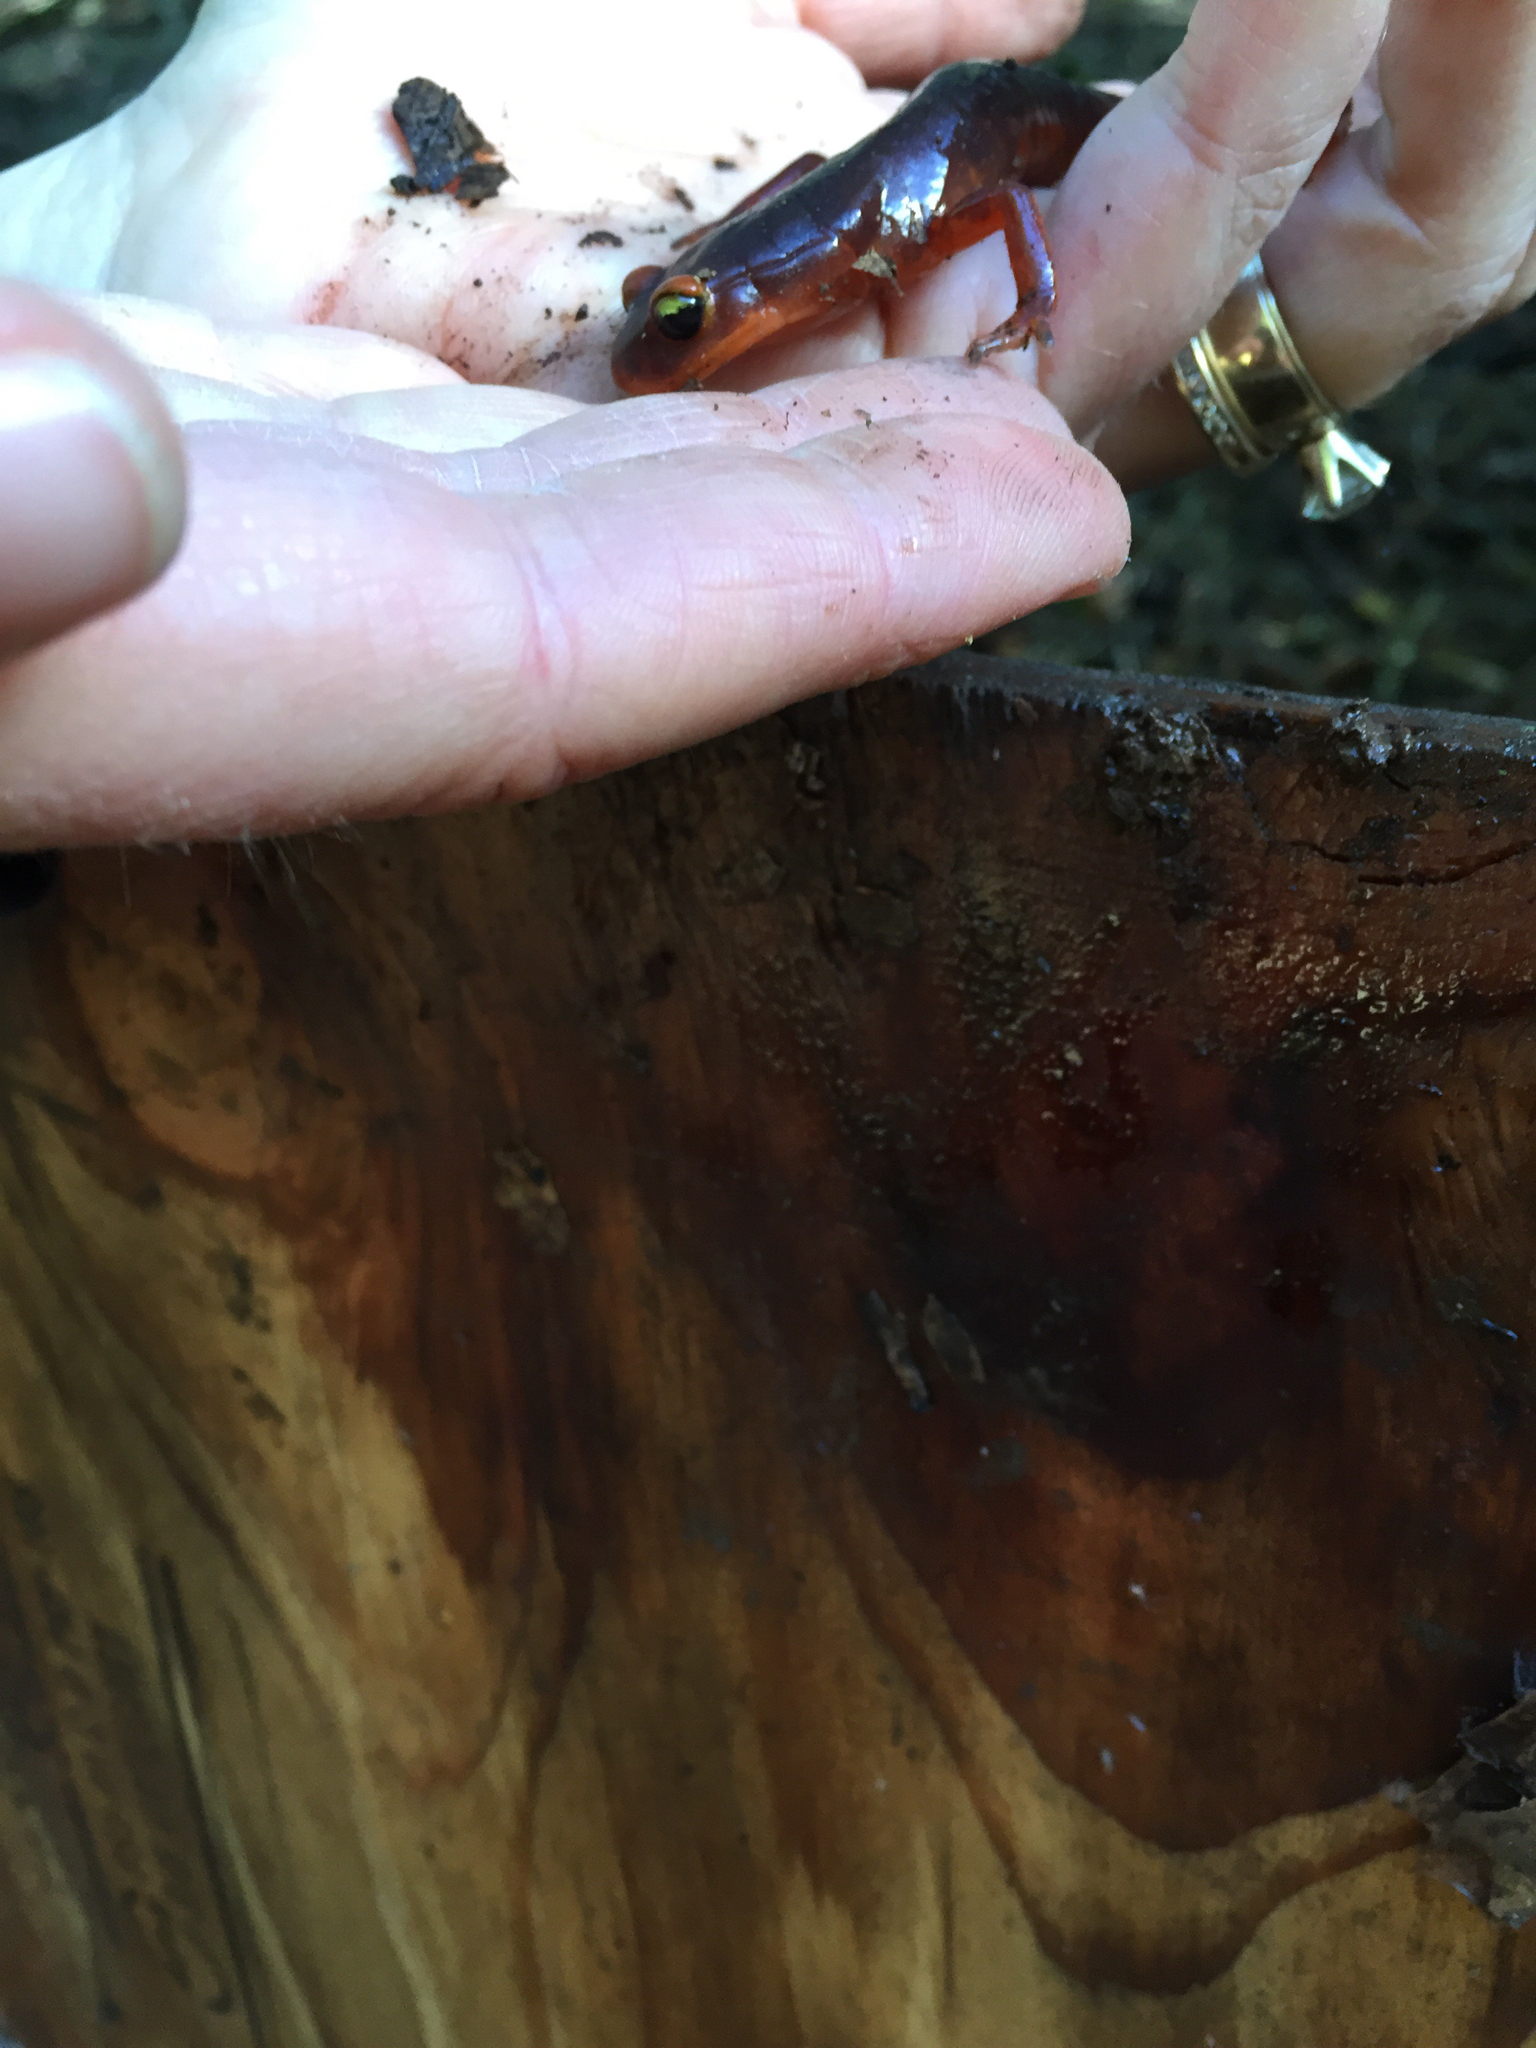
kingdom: Animalia
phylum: Chordata
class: Amphibia
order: Caudata
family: Plethodontidae
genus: Ensatina
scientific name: Ensatina eschscholtzii
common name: Ensatina
